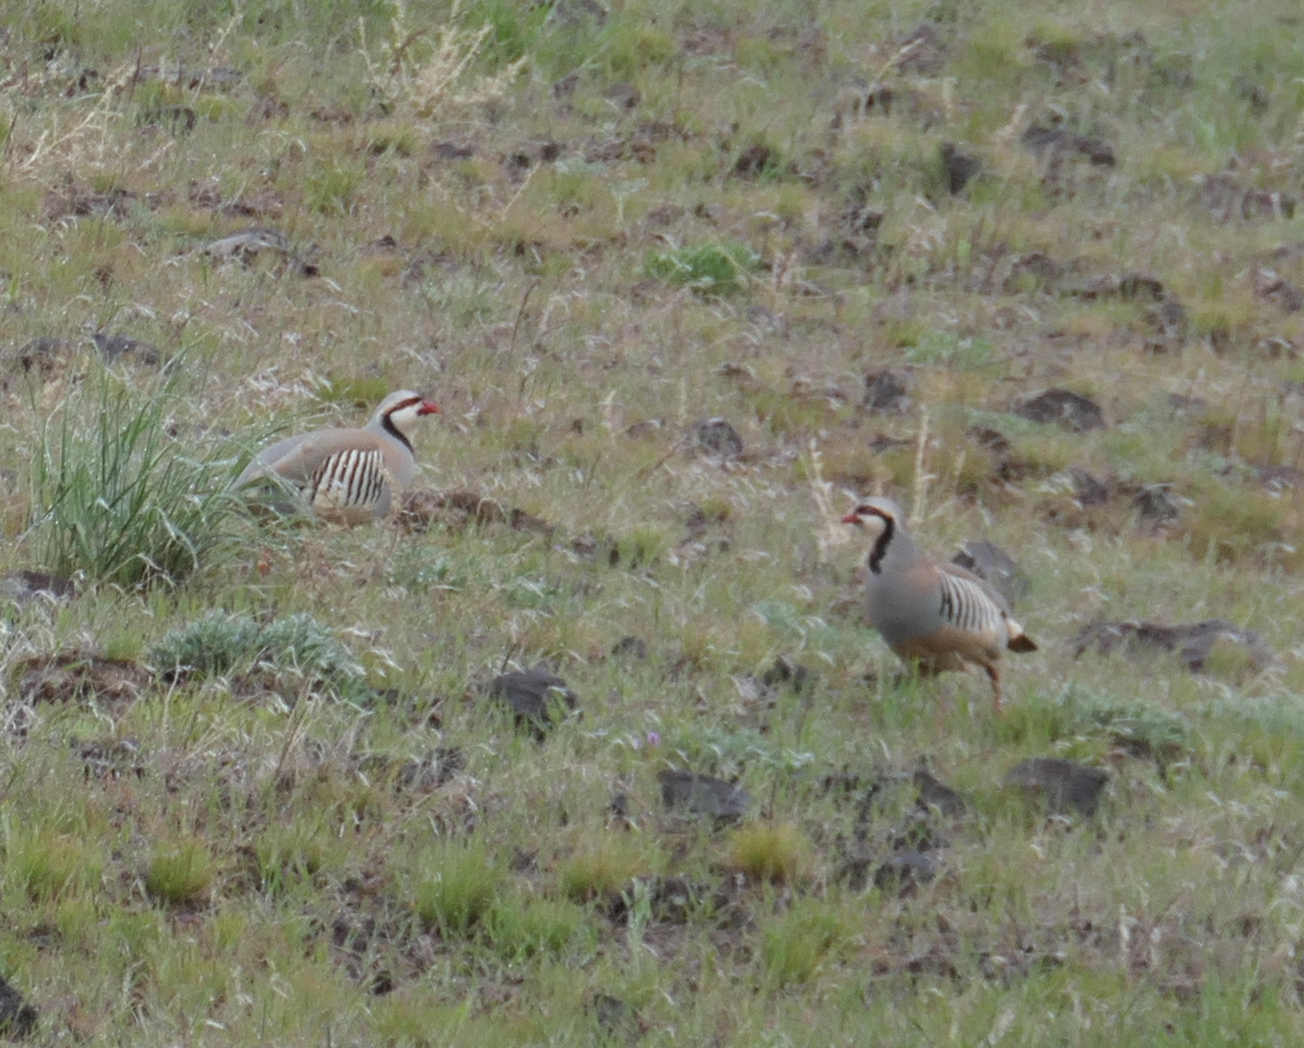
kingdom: Animalia
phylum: Chordata
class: Aves
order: Galliformes
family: Phasianidae
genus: Alectoris
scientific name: Alectoris chukar
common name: Chukar
